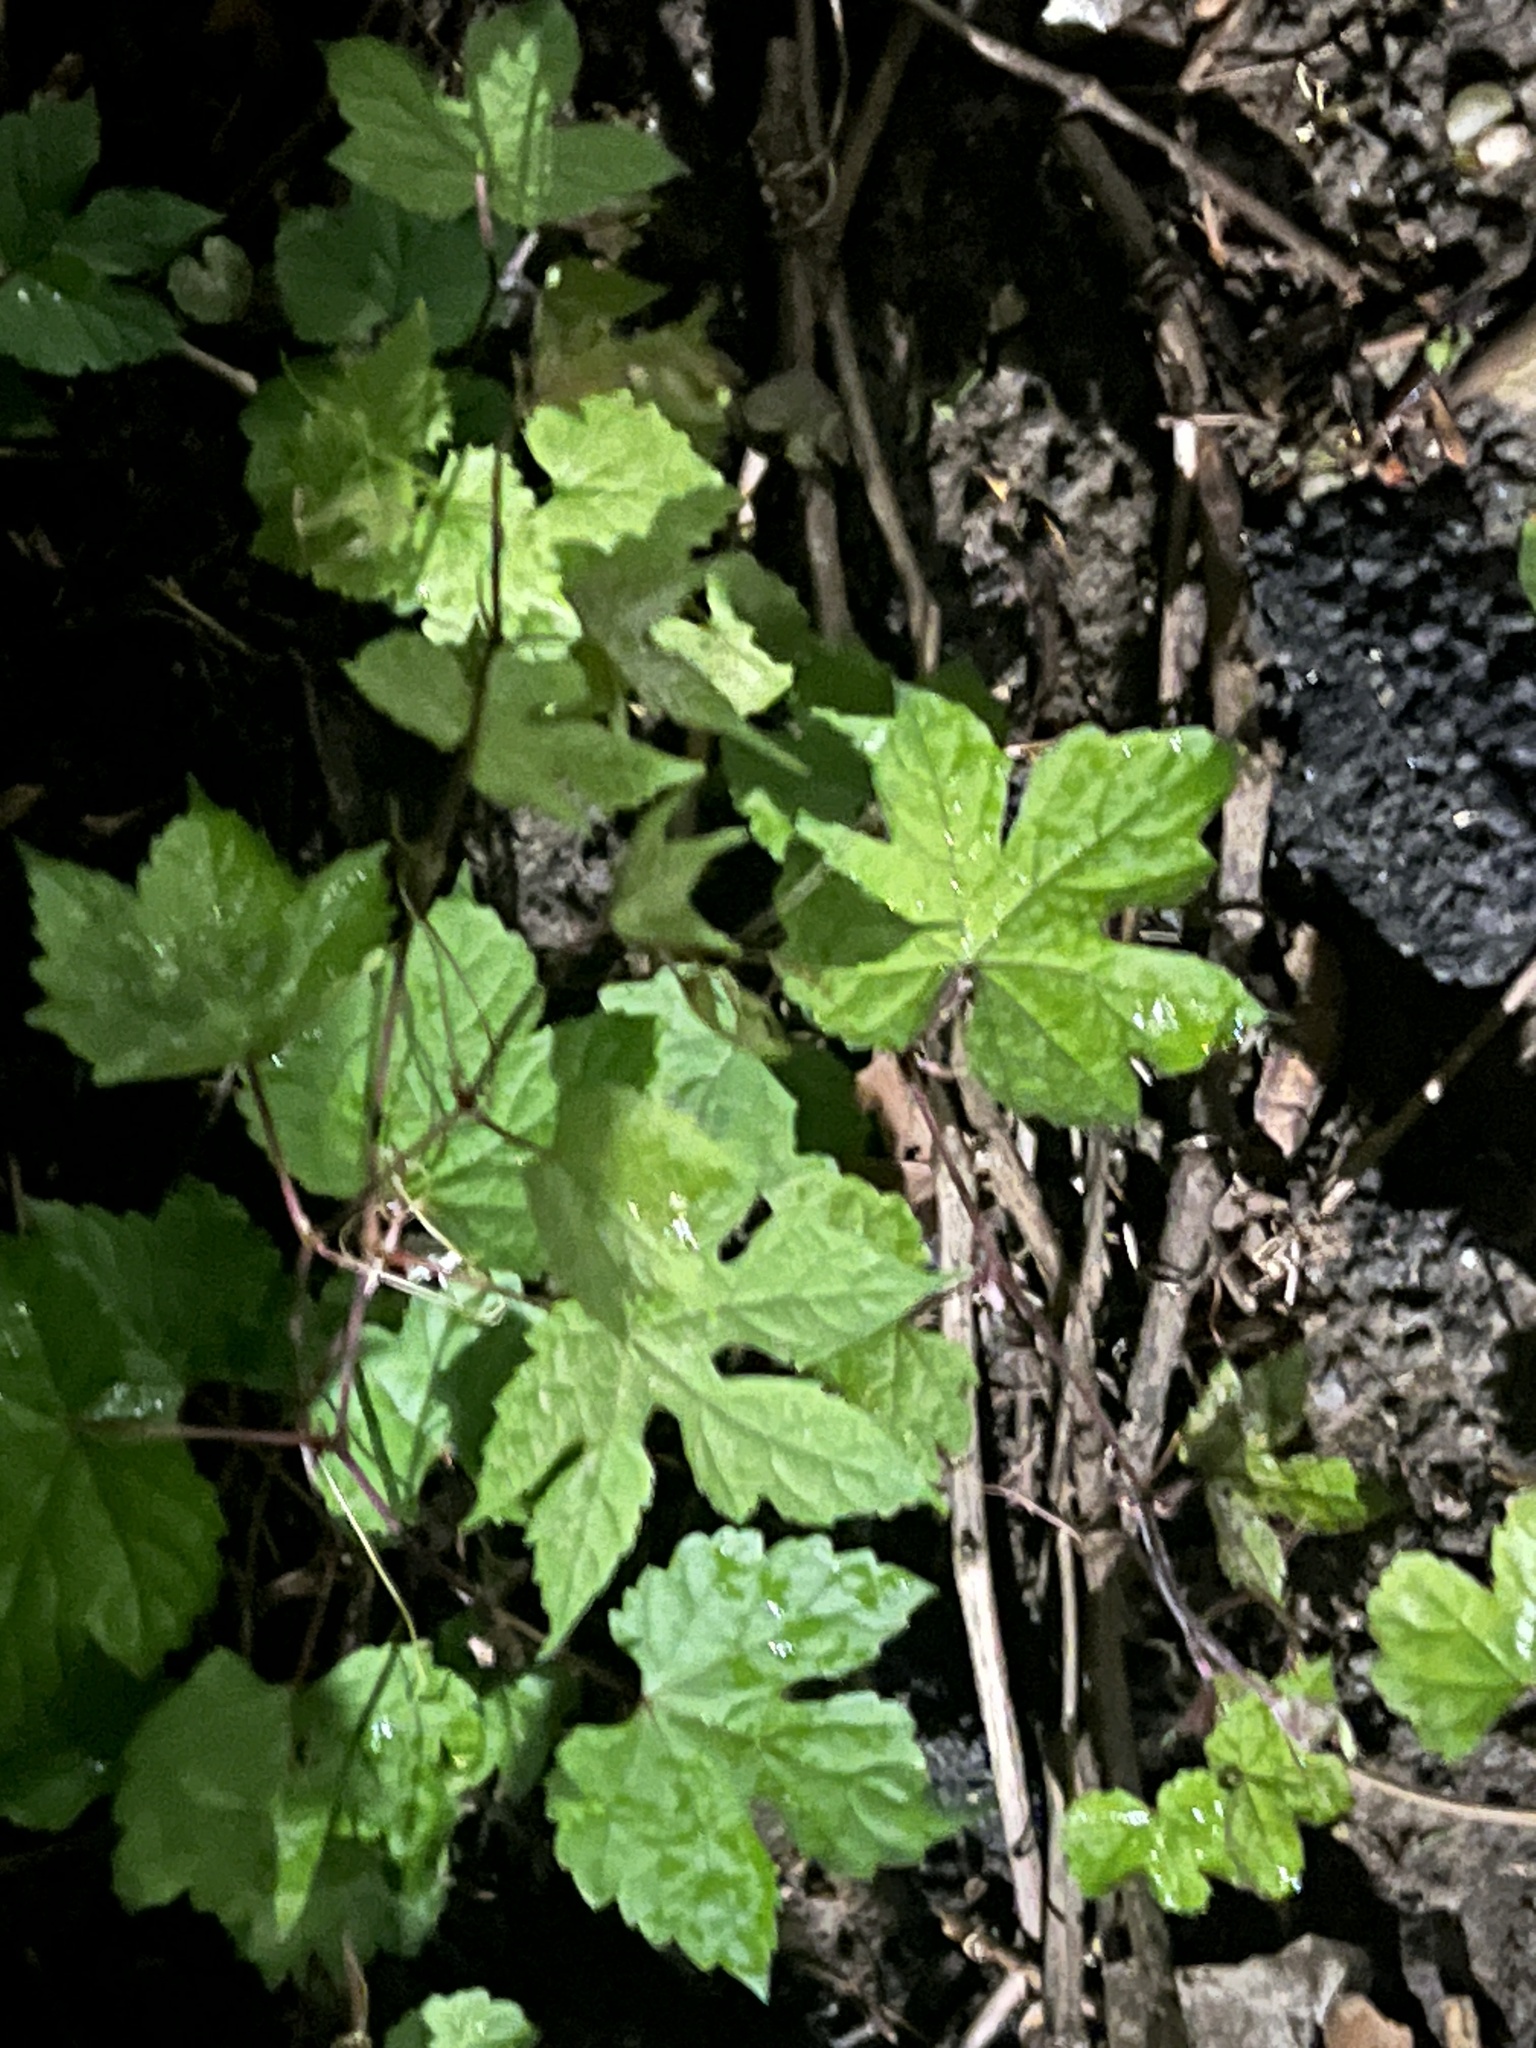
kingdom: Plantae
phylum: Tracheophyta
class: Magnoliopsida
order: Vitales
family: Vitaceae
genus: Ampelopsis
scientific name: Ampelopsis glandulosa
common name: Amur peppervine
